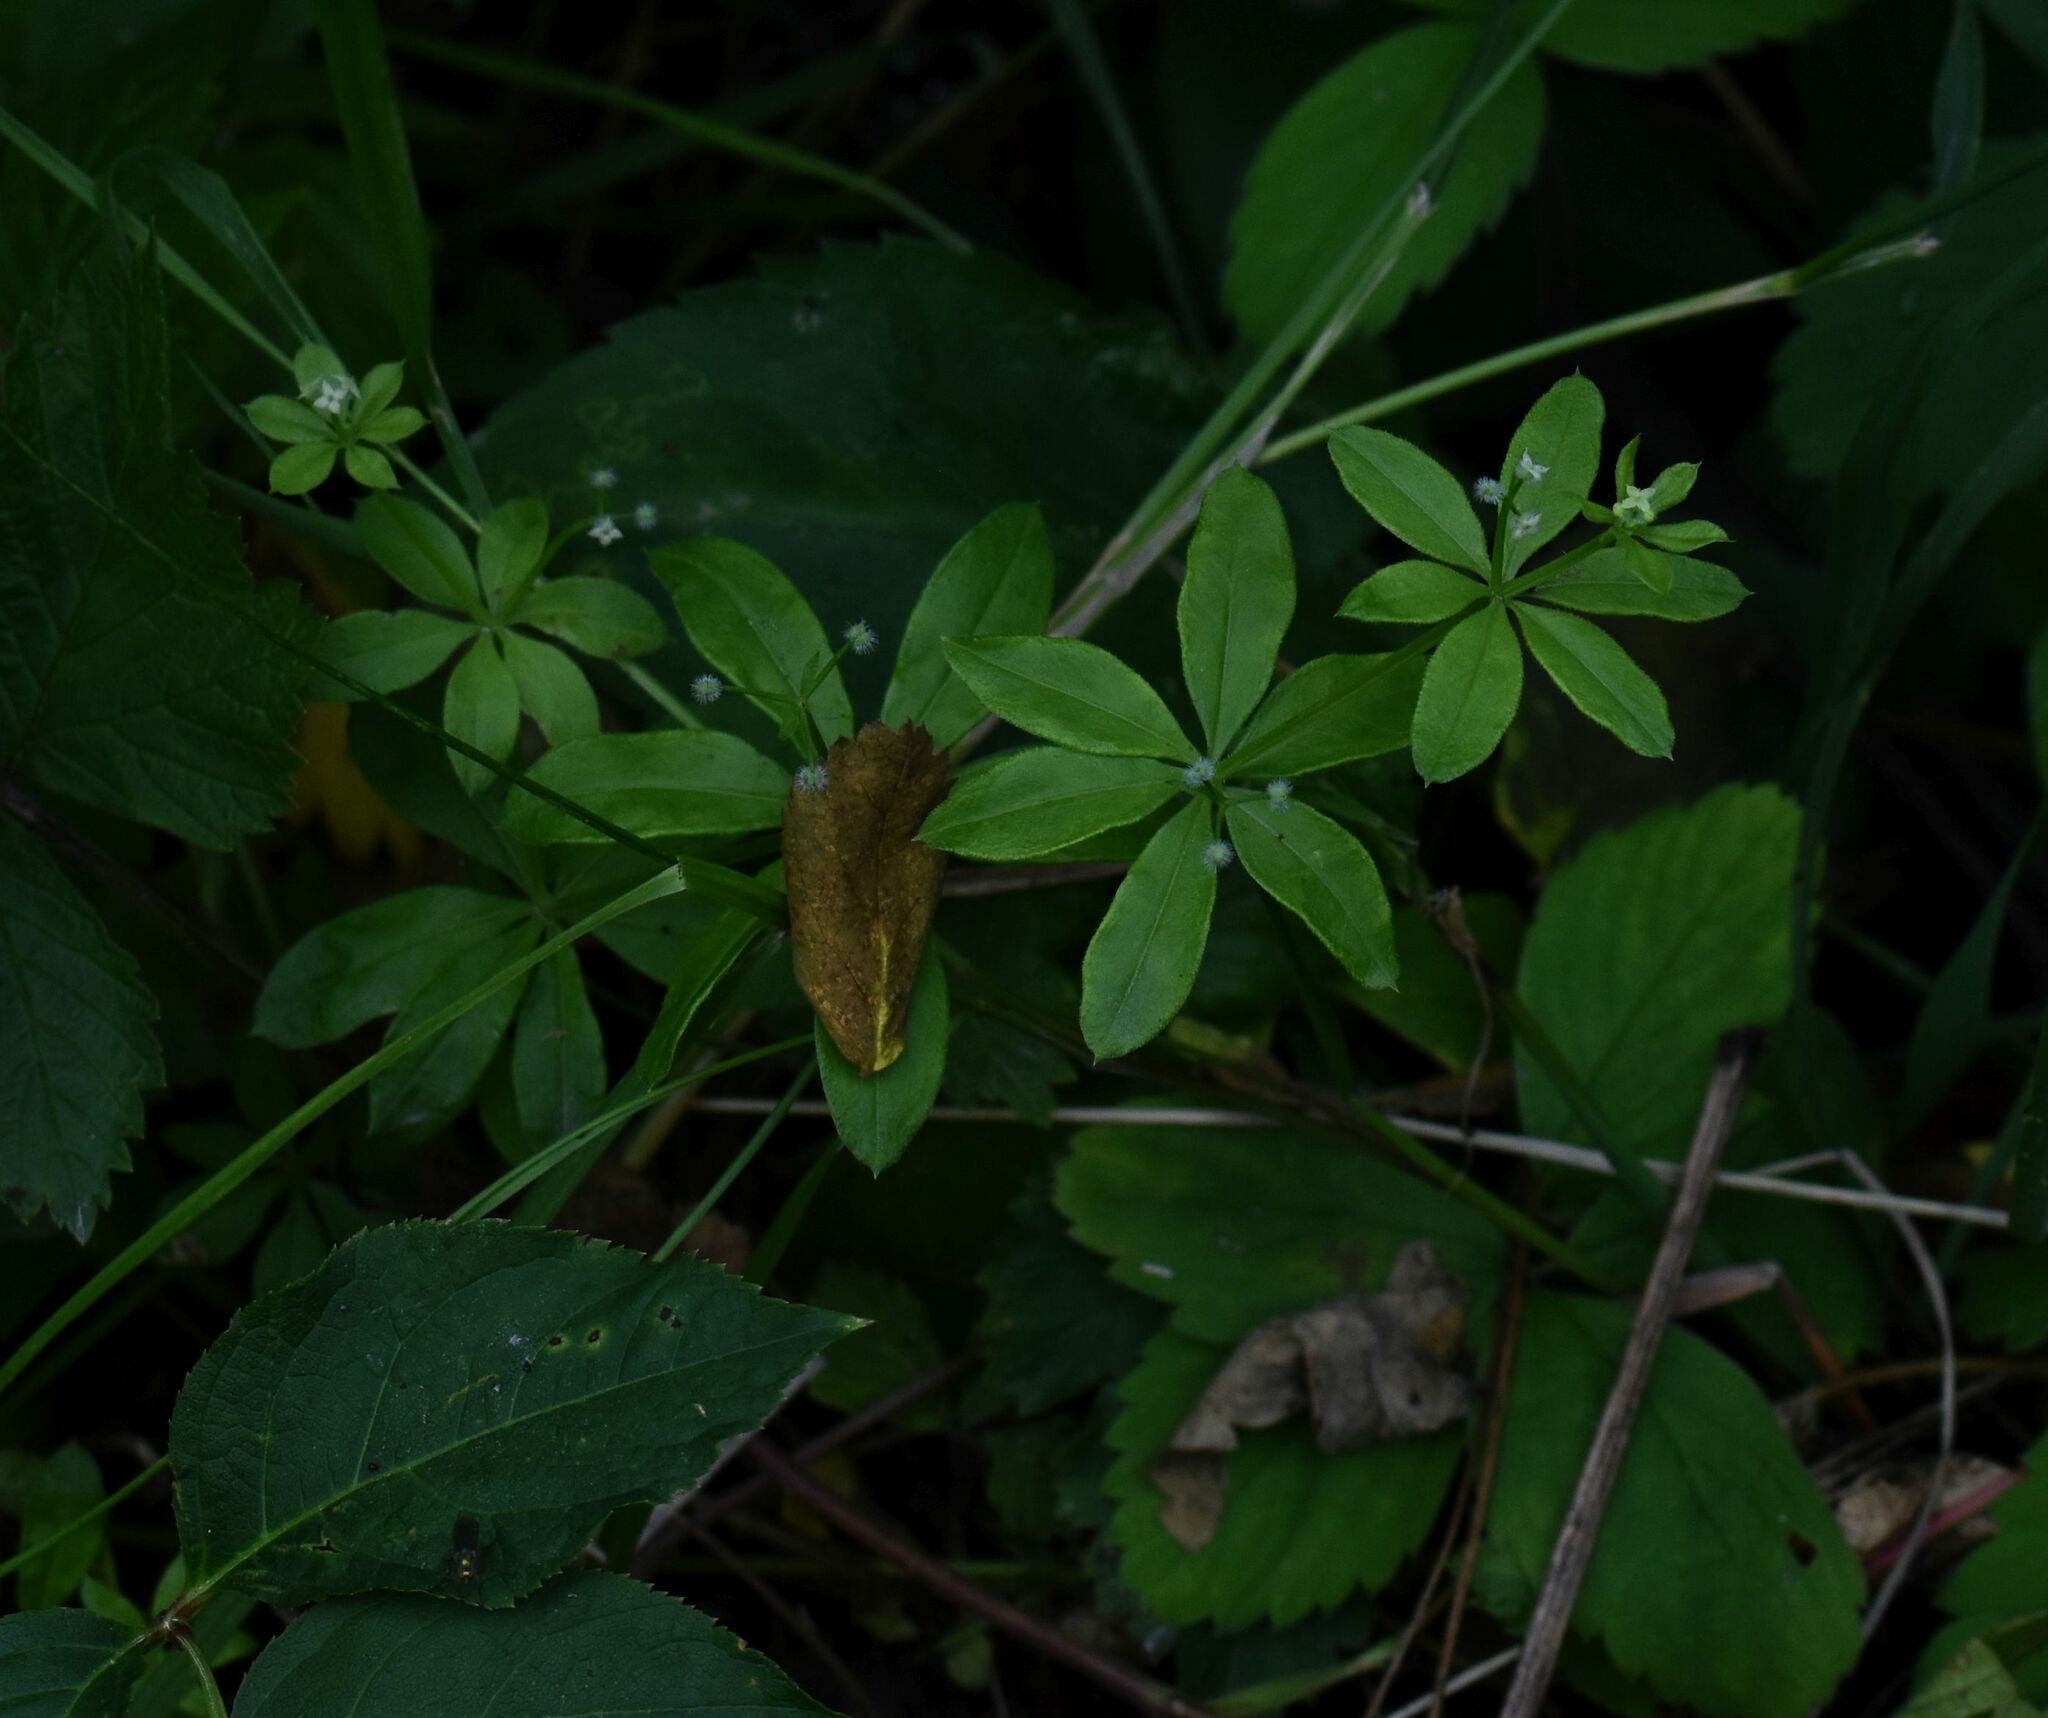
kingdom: Plantae
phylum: Tracheophyta
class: Magnoliopsida
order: Gentianales
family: Rubiaceae
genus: Galium
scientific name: Galium triflorum
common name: Fragrant bedstraw
